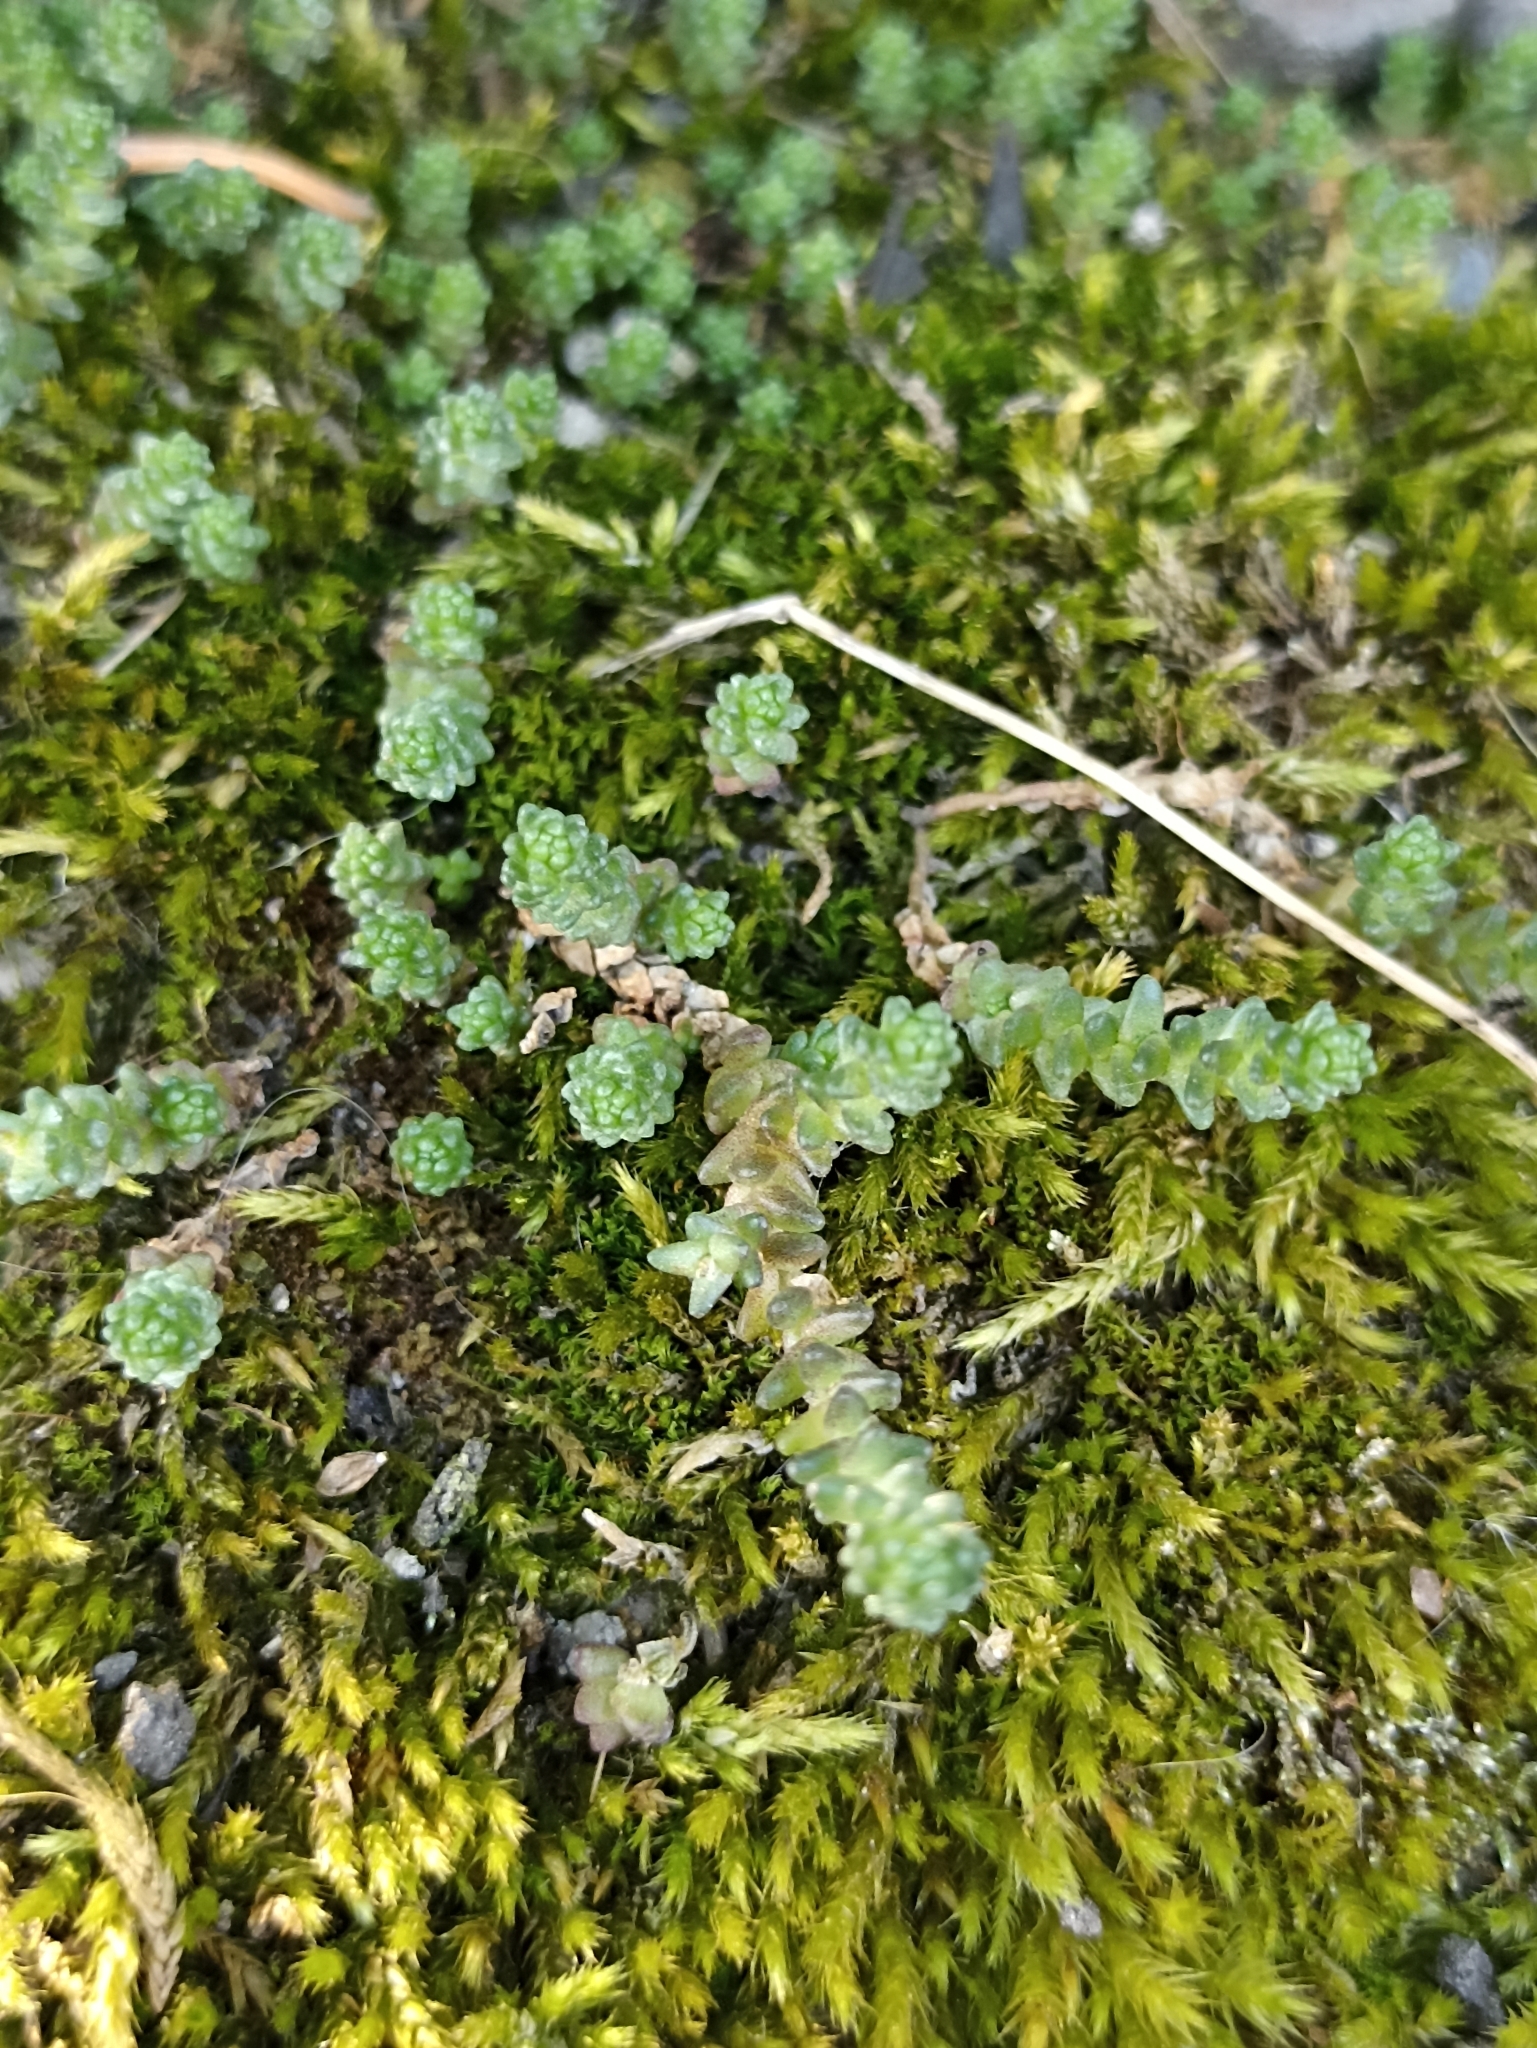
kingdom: Plantae
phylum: Tracheophyta
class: Magnoliopsida
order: Saxifragales
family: Crassulaceae
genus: Sedum
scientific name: Sedum acre
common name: Biting stonecrop
